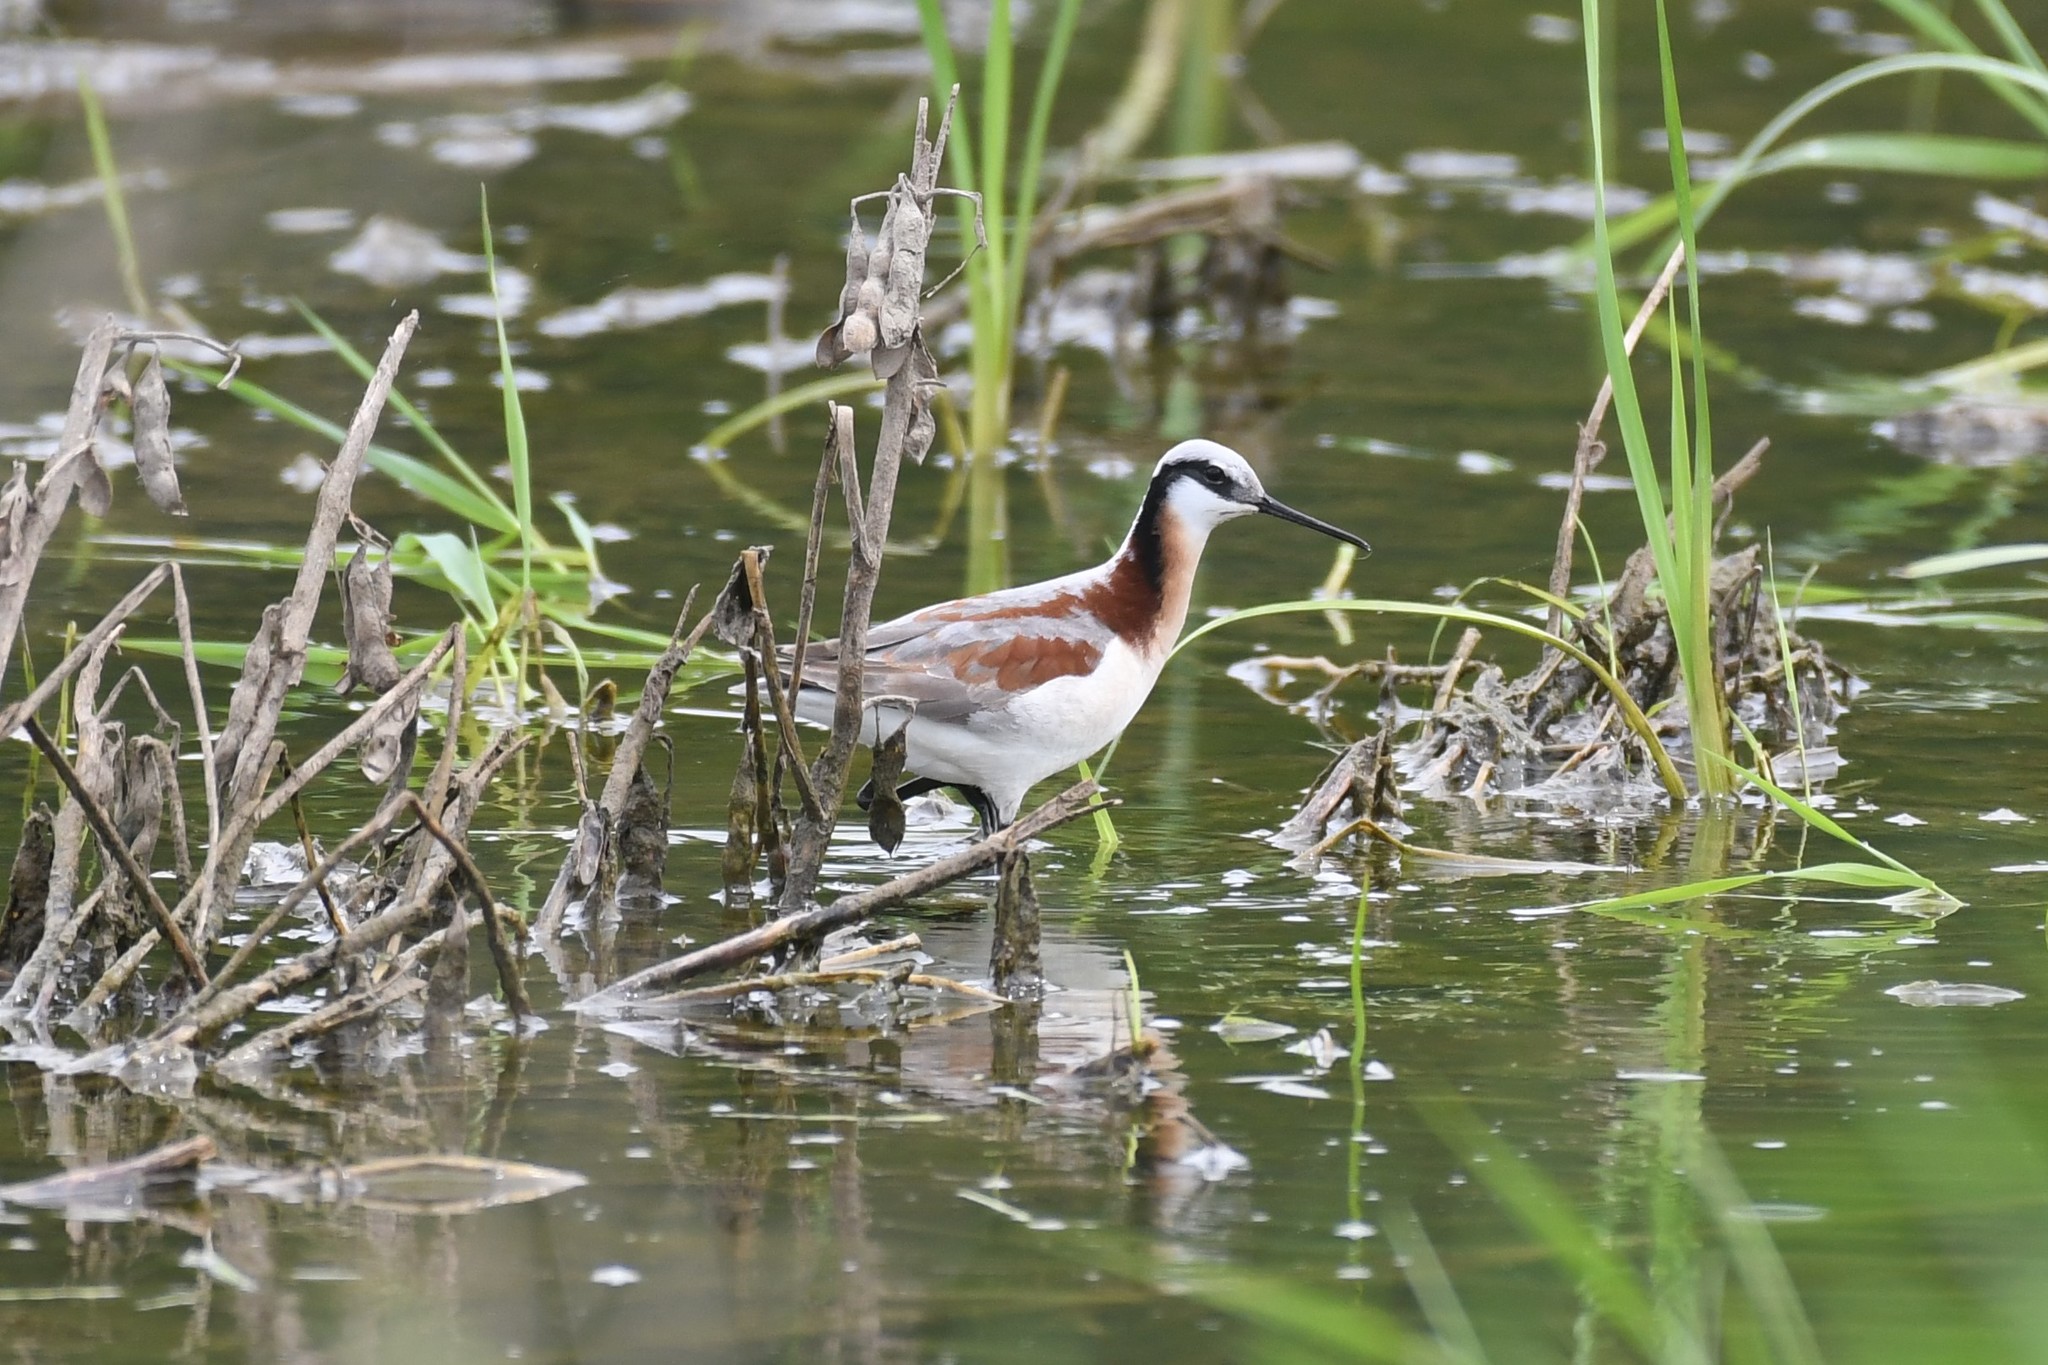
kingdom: Animalia
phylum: Chordata
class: Aves
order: Charadriiformes
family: Scolopacidae
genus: Phalaropus
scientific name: Phalaropus tricolor
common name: Wilson's phalarope
